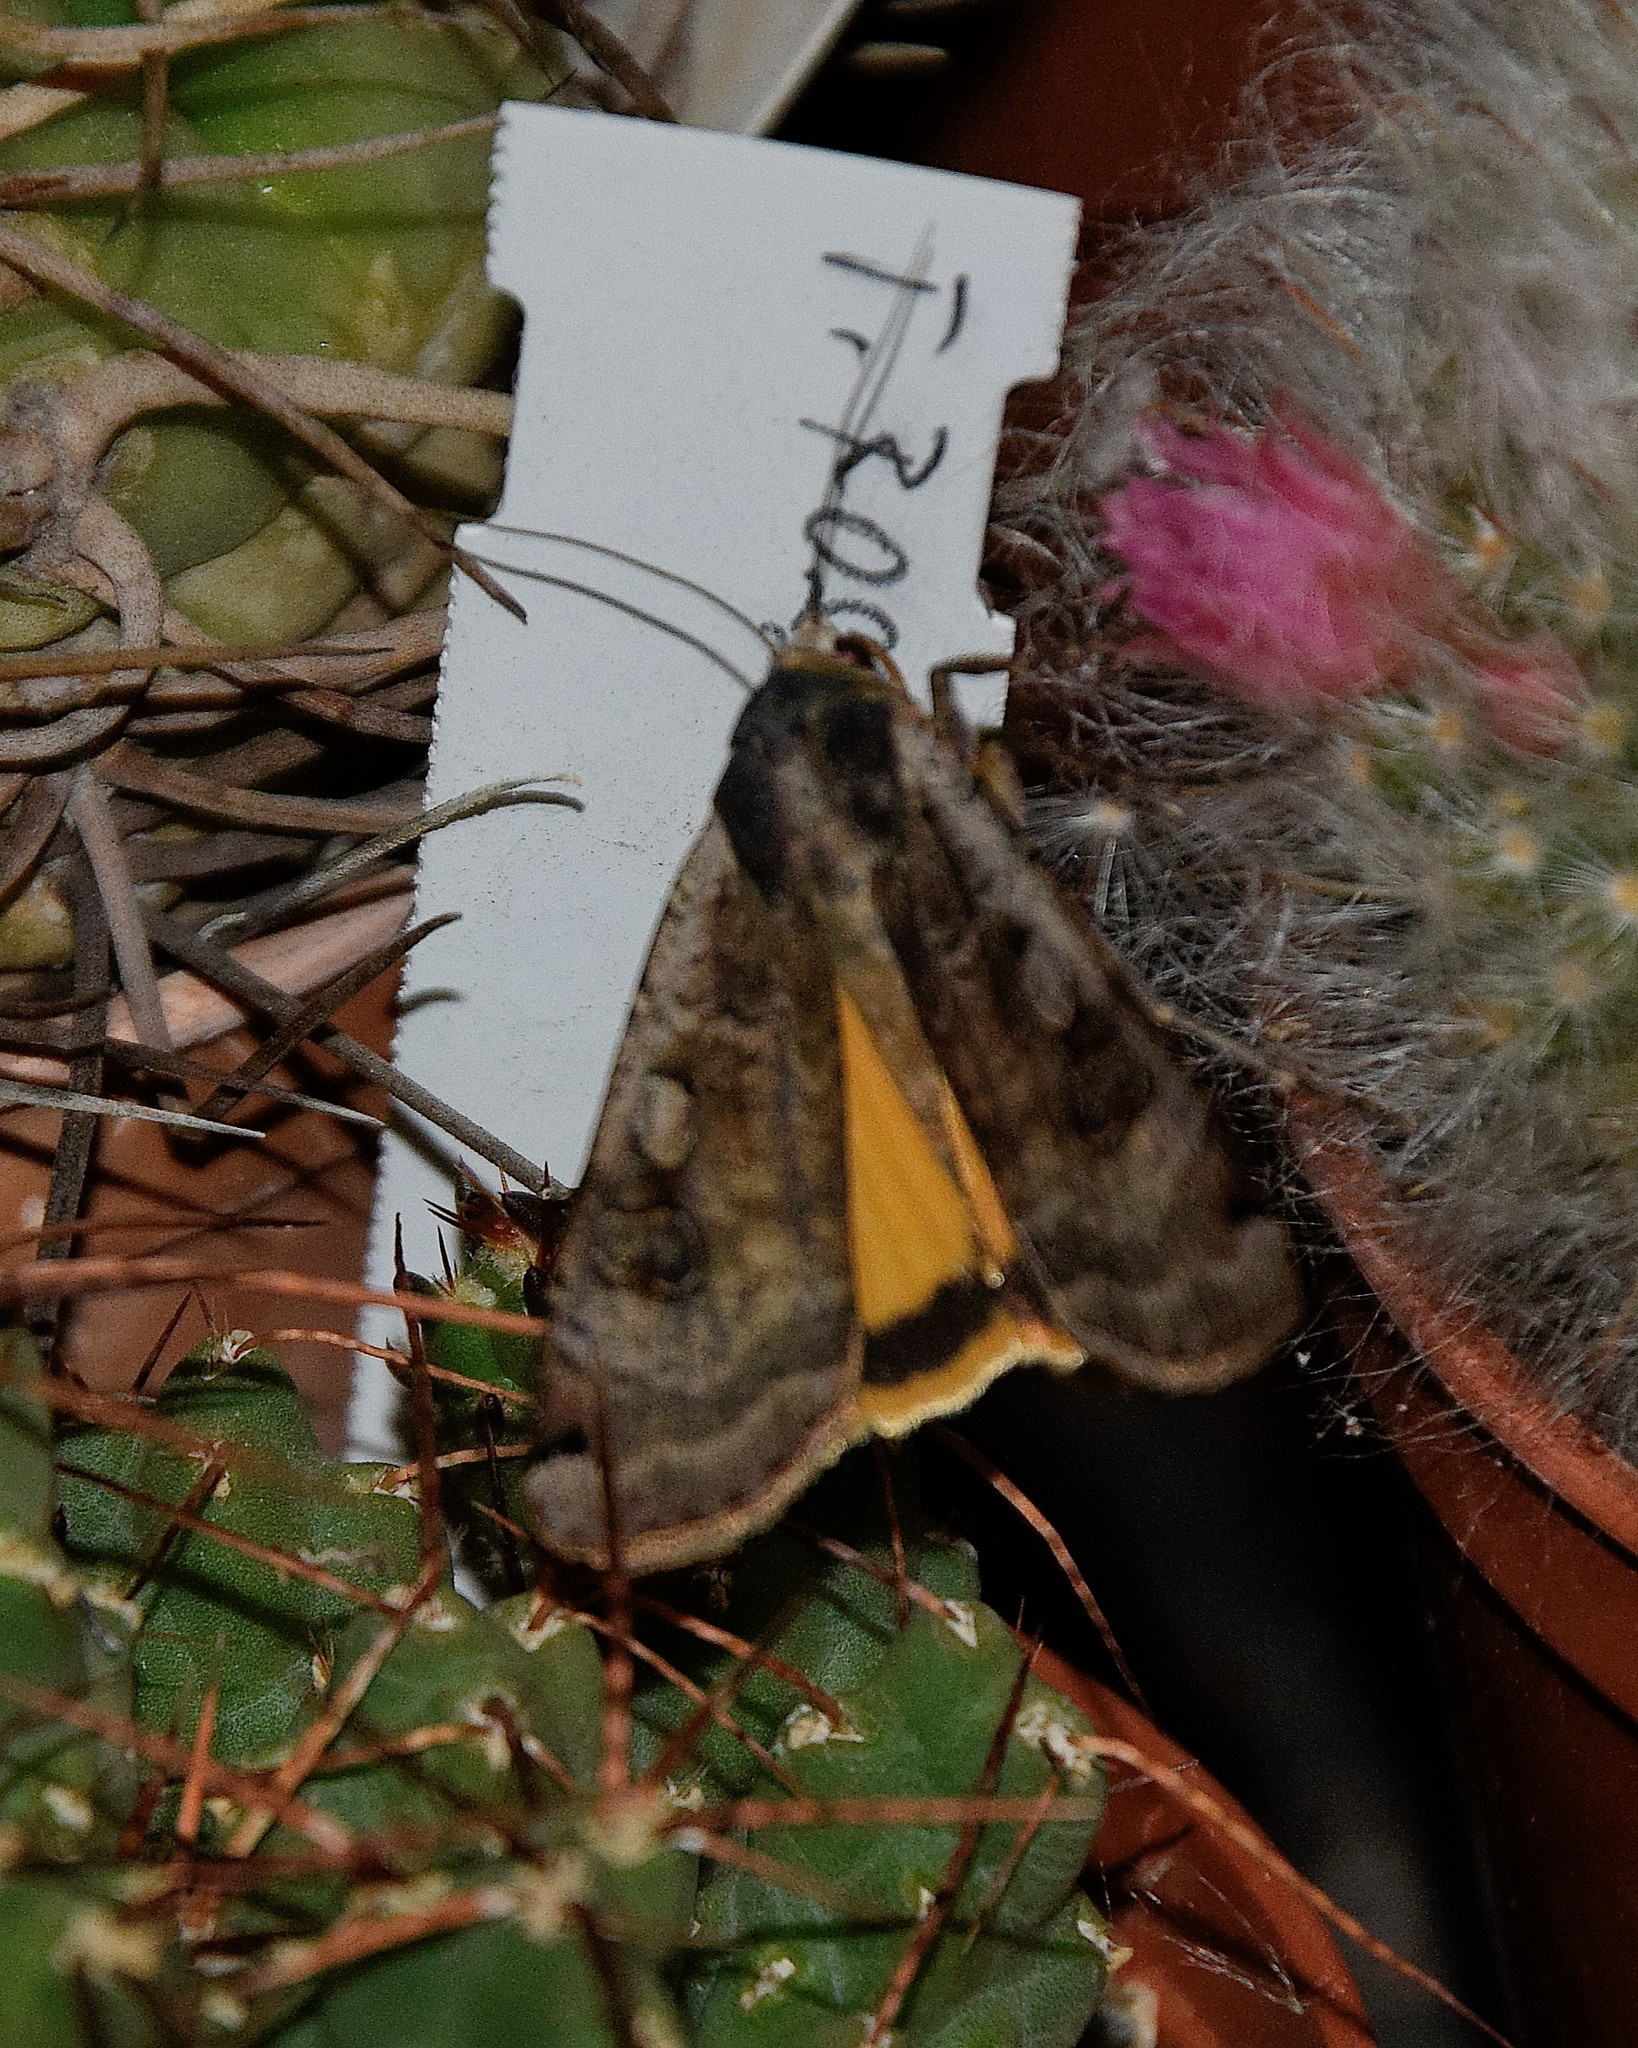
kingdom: Animalia
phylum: Arthropoda
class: Insecta
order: Lepidoptera
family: Noctuidae
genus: Noctua
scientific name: Noctua pronuba
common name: Large yellow underwing
